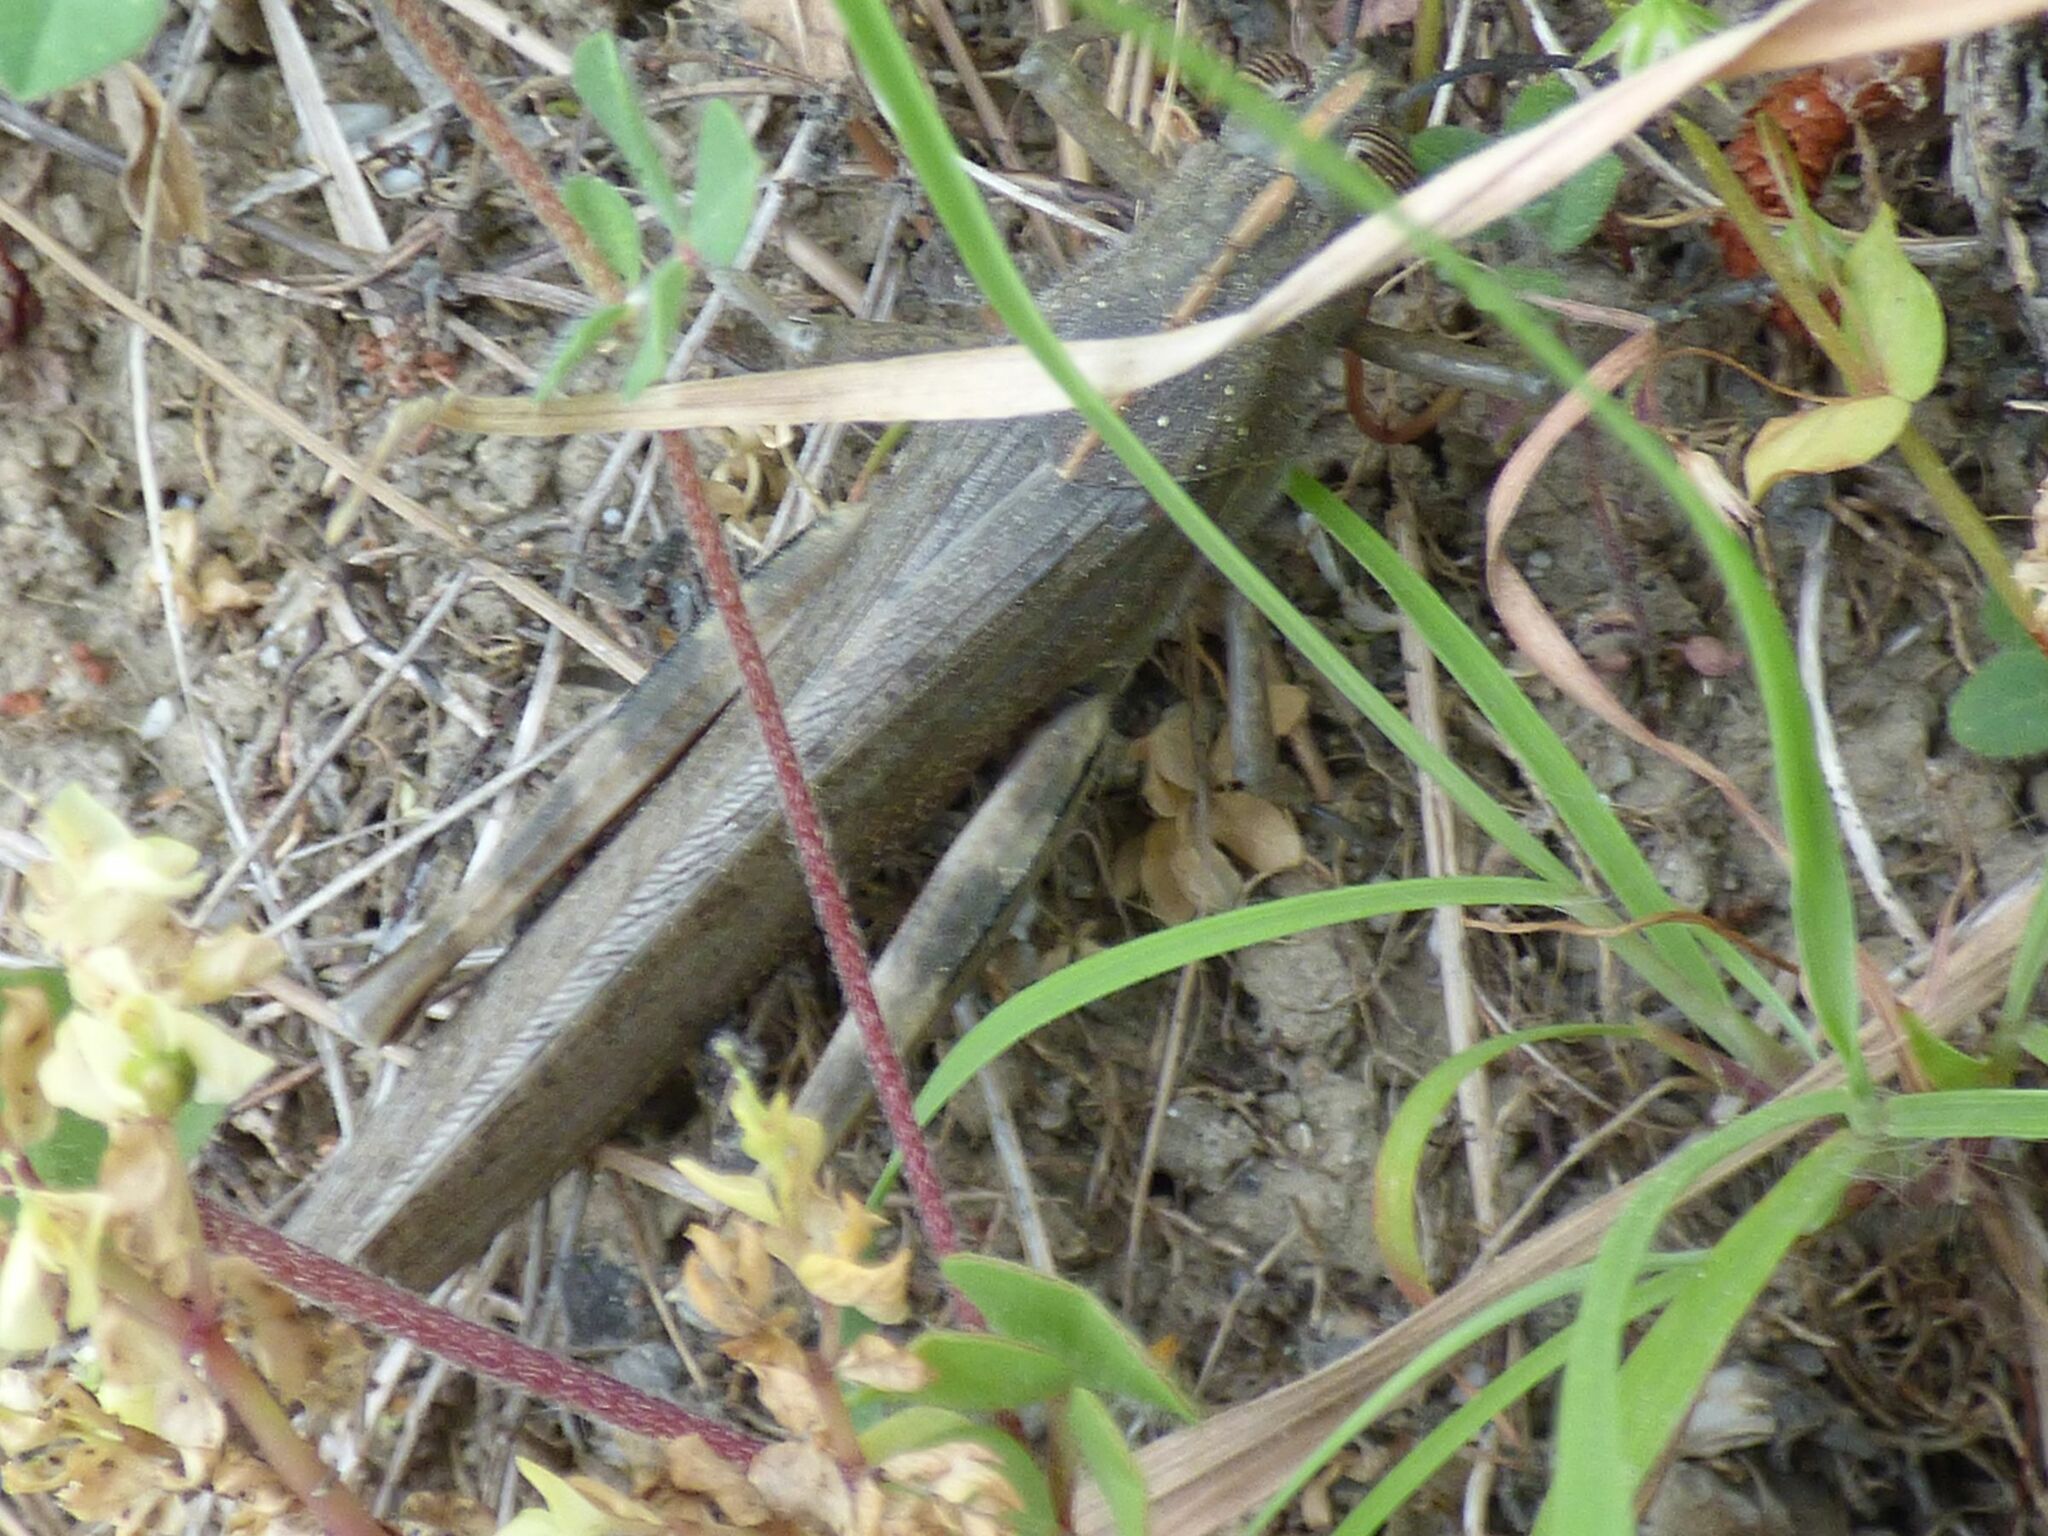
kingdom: Animalia
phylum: Arthropoda
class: Insecta
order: Orthoptera
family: Acrididae
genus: Anacridium
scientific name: Anacridium aegyptium
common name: Egyptian grasshopper
